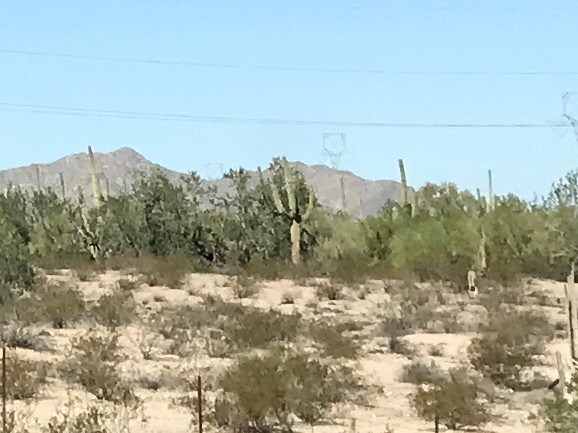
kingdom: Plantae
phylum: Tracheophyta
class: Magnoliopsida
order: Caryophyllales
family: Cactaceae
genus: Carnegiea
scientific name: Carnegiea gigantea
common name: Saguaro
